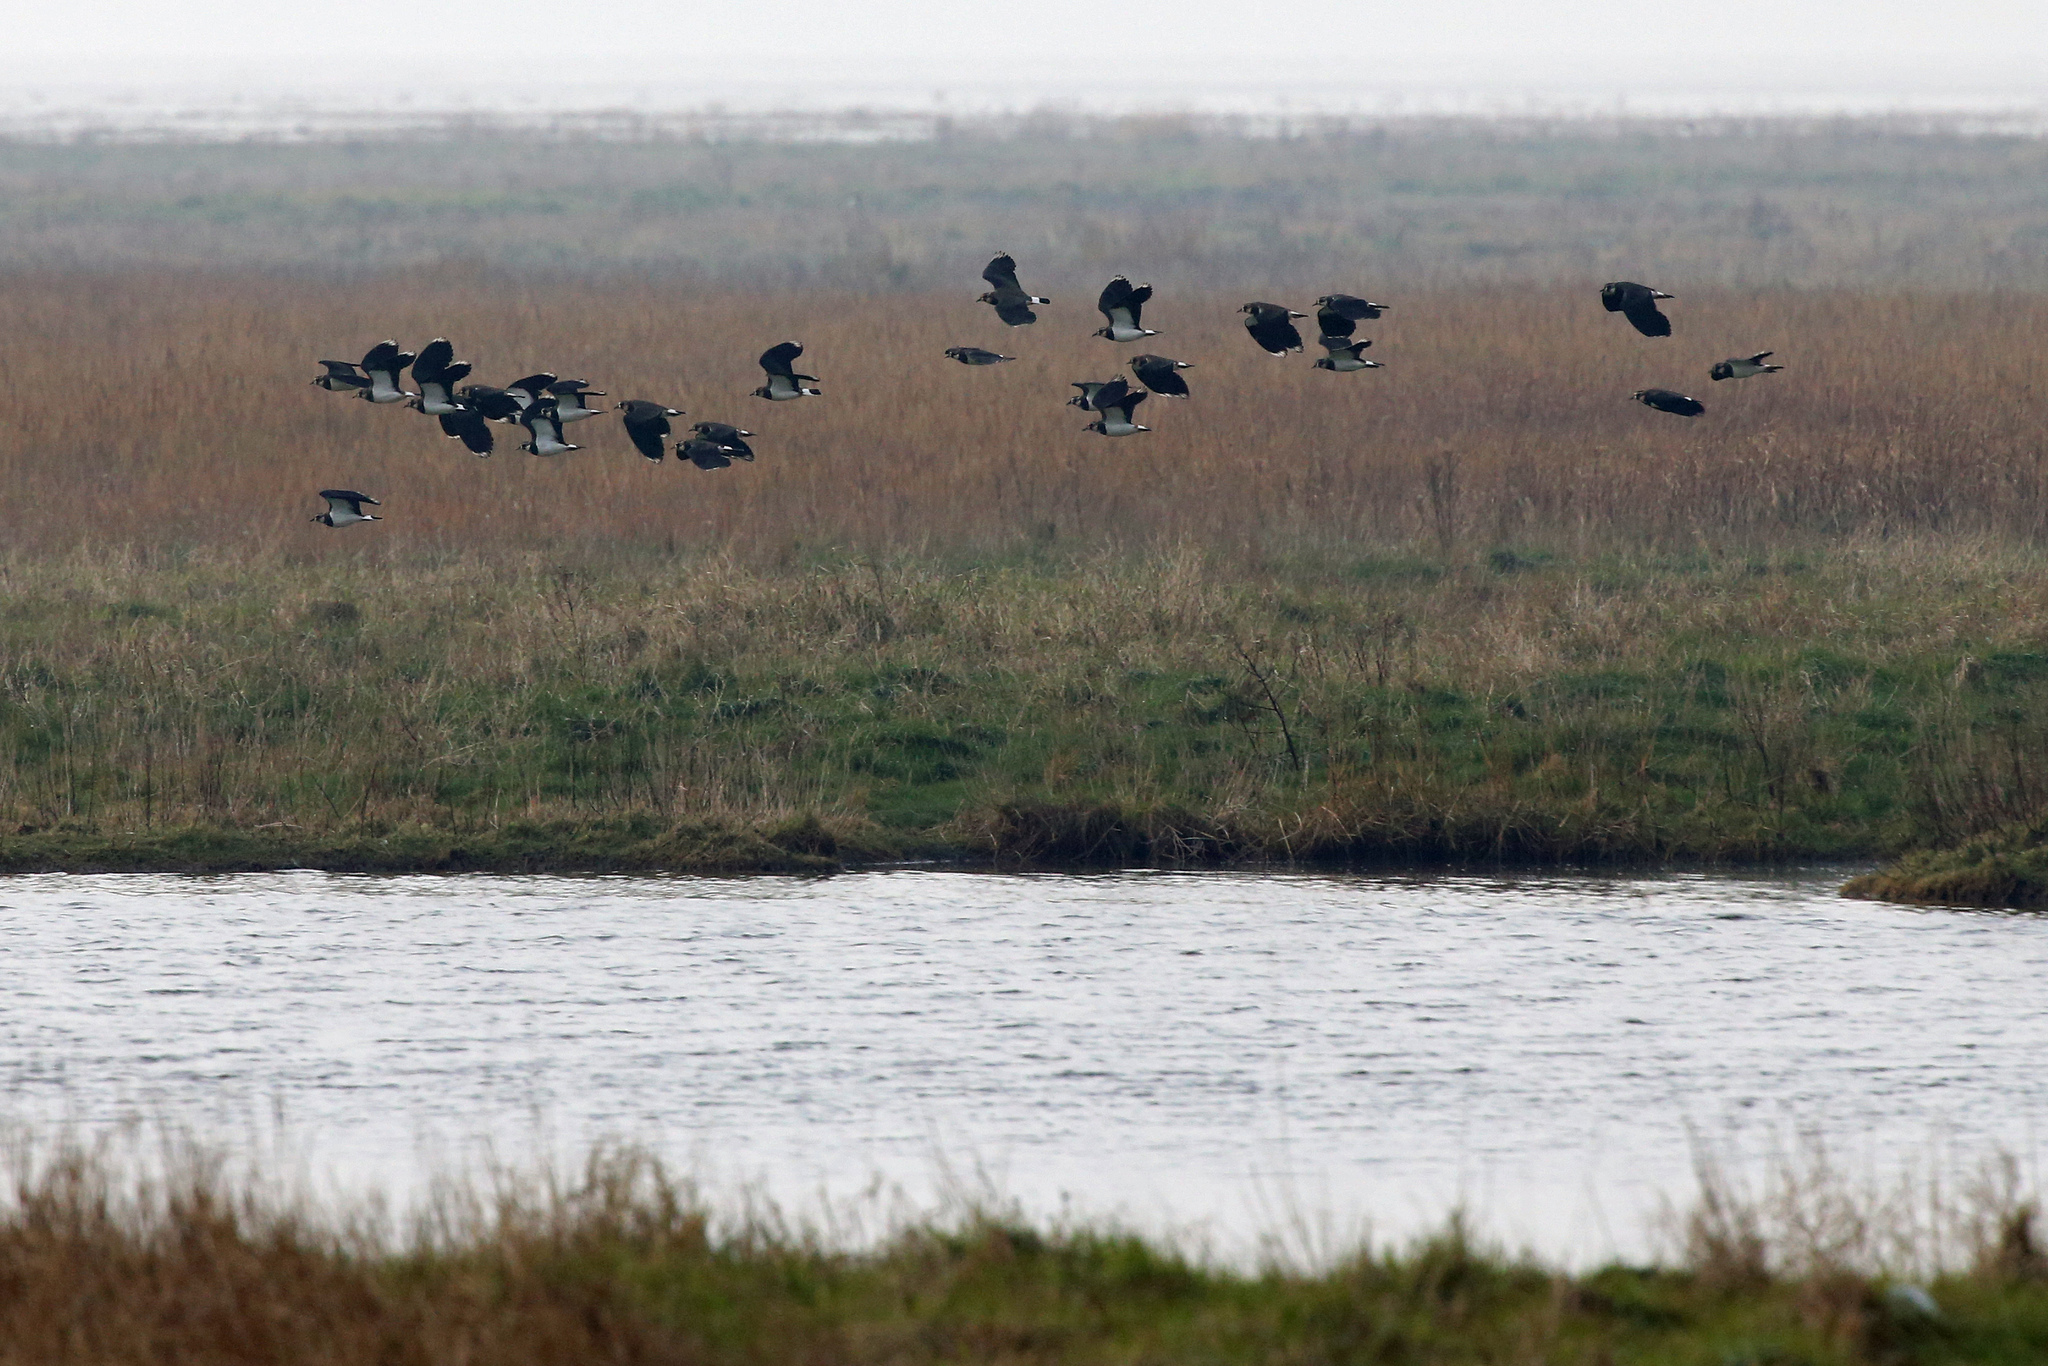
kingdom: Animalia
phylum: Chordata
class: Aves
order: Charadriiformes
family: Charadriidae
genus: Vanellus
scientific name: Vanellus vanellus
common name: Northern lapwing
